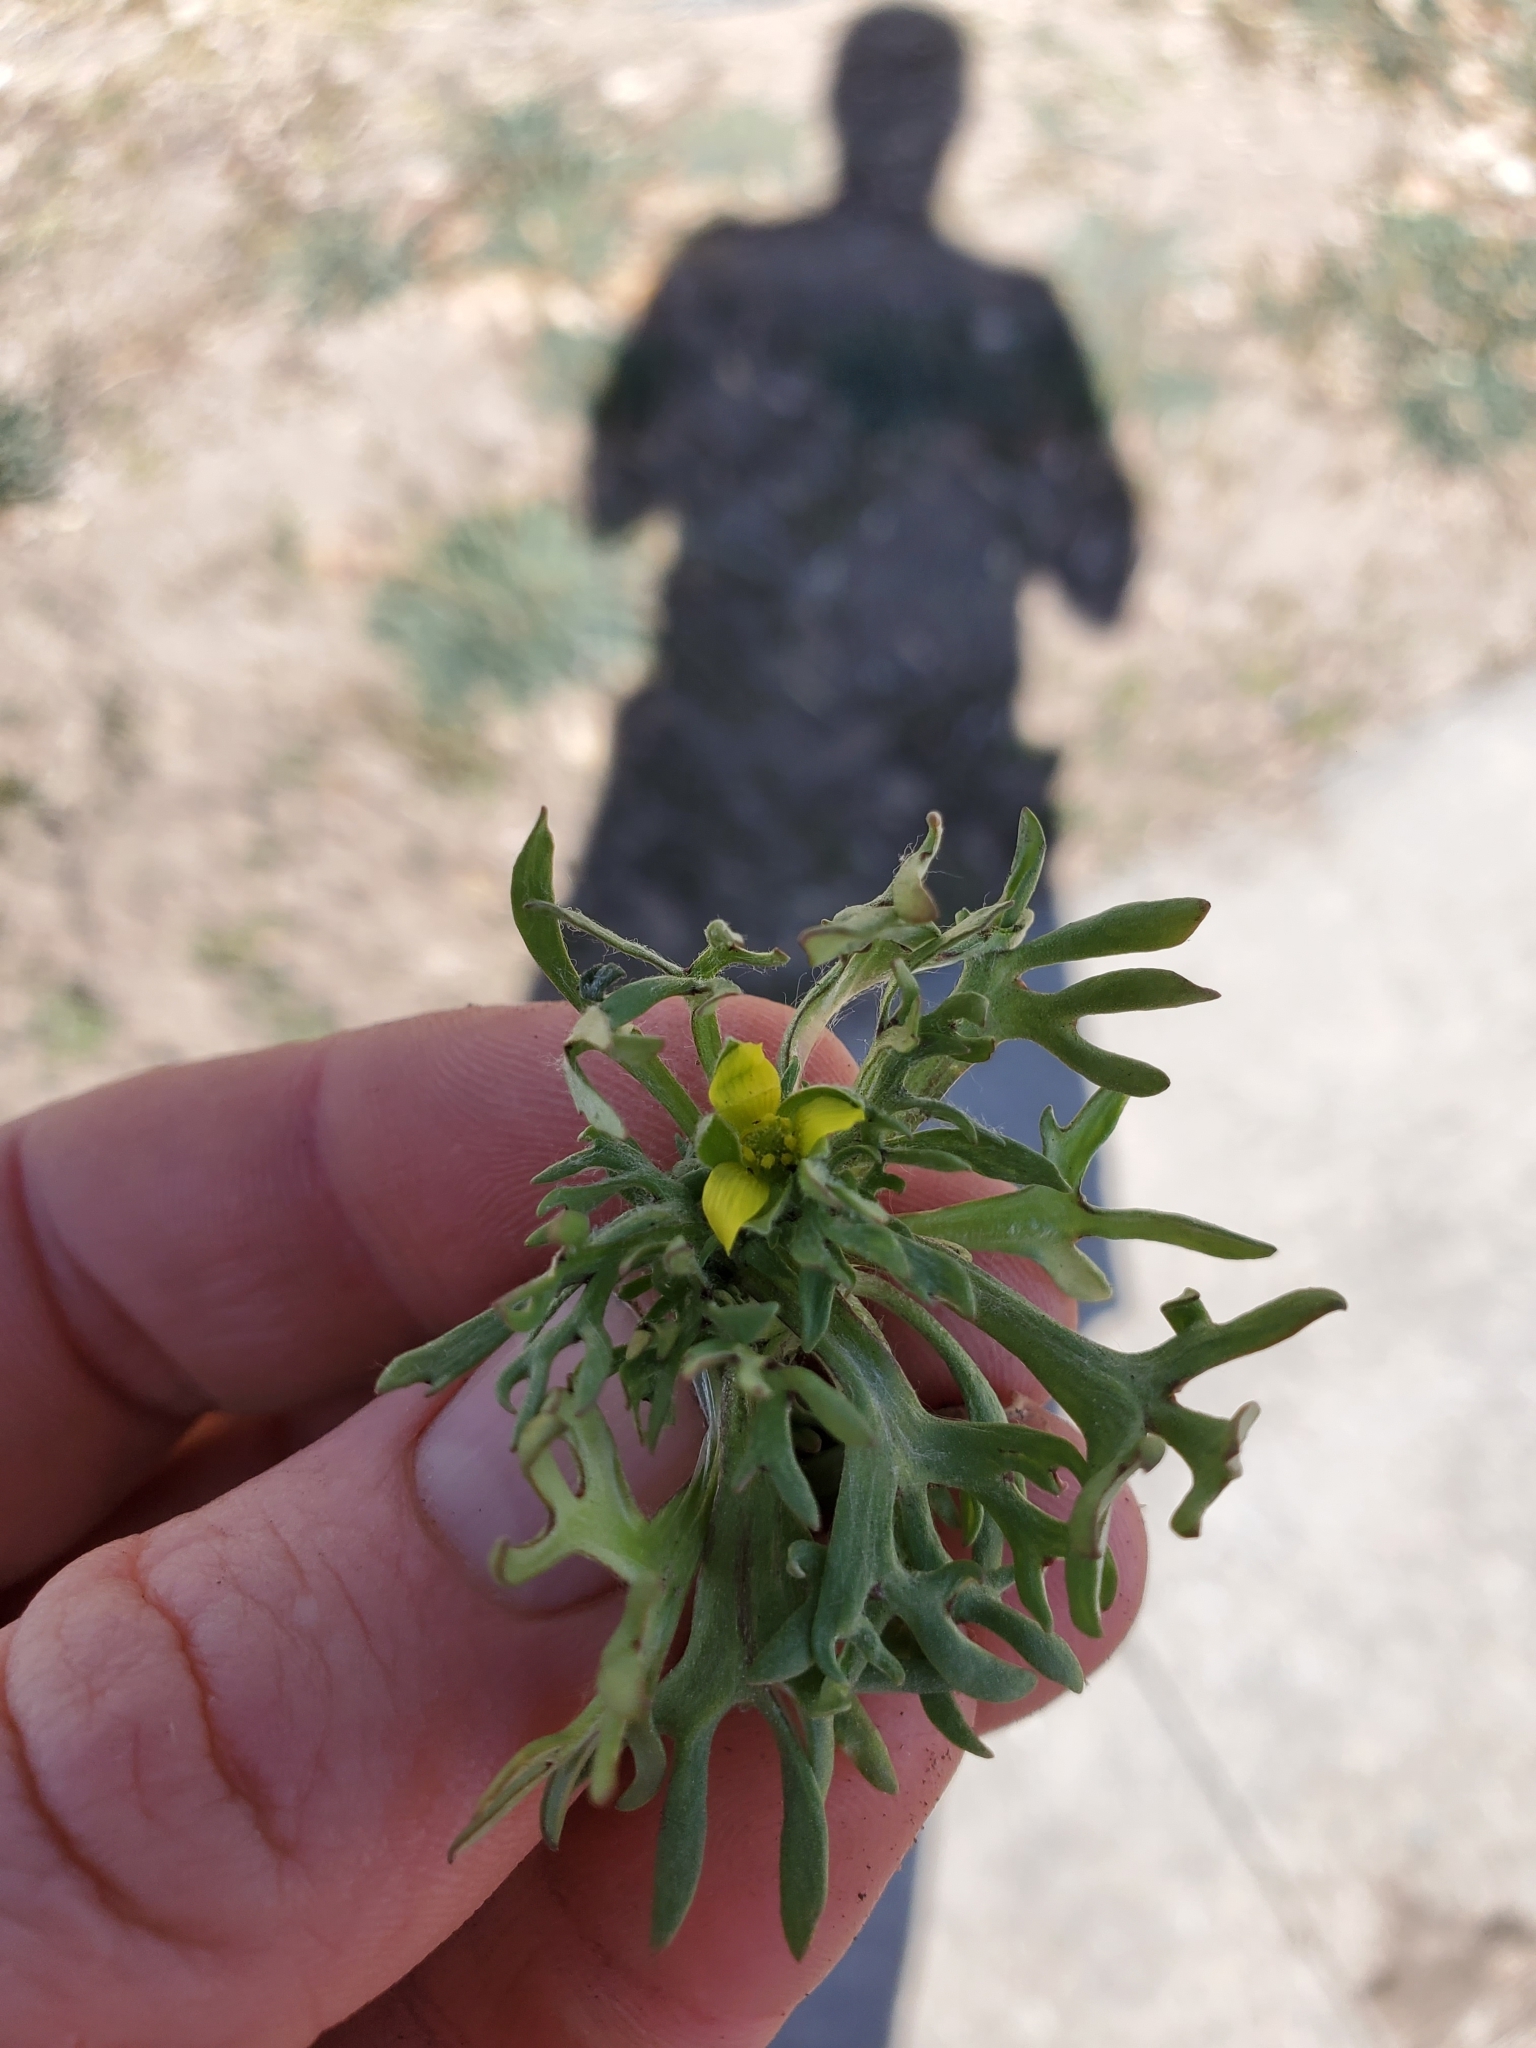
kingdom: Plantae
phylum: Tracheophyta
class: Magnoliopsida
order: Ranunculales
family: Ranunculaceae
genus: Ceratocephala
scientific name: Ceratocephala orthoceras
